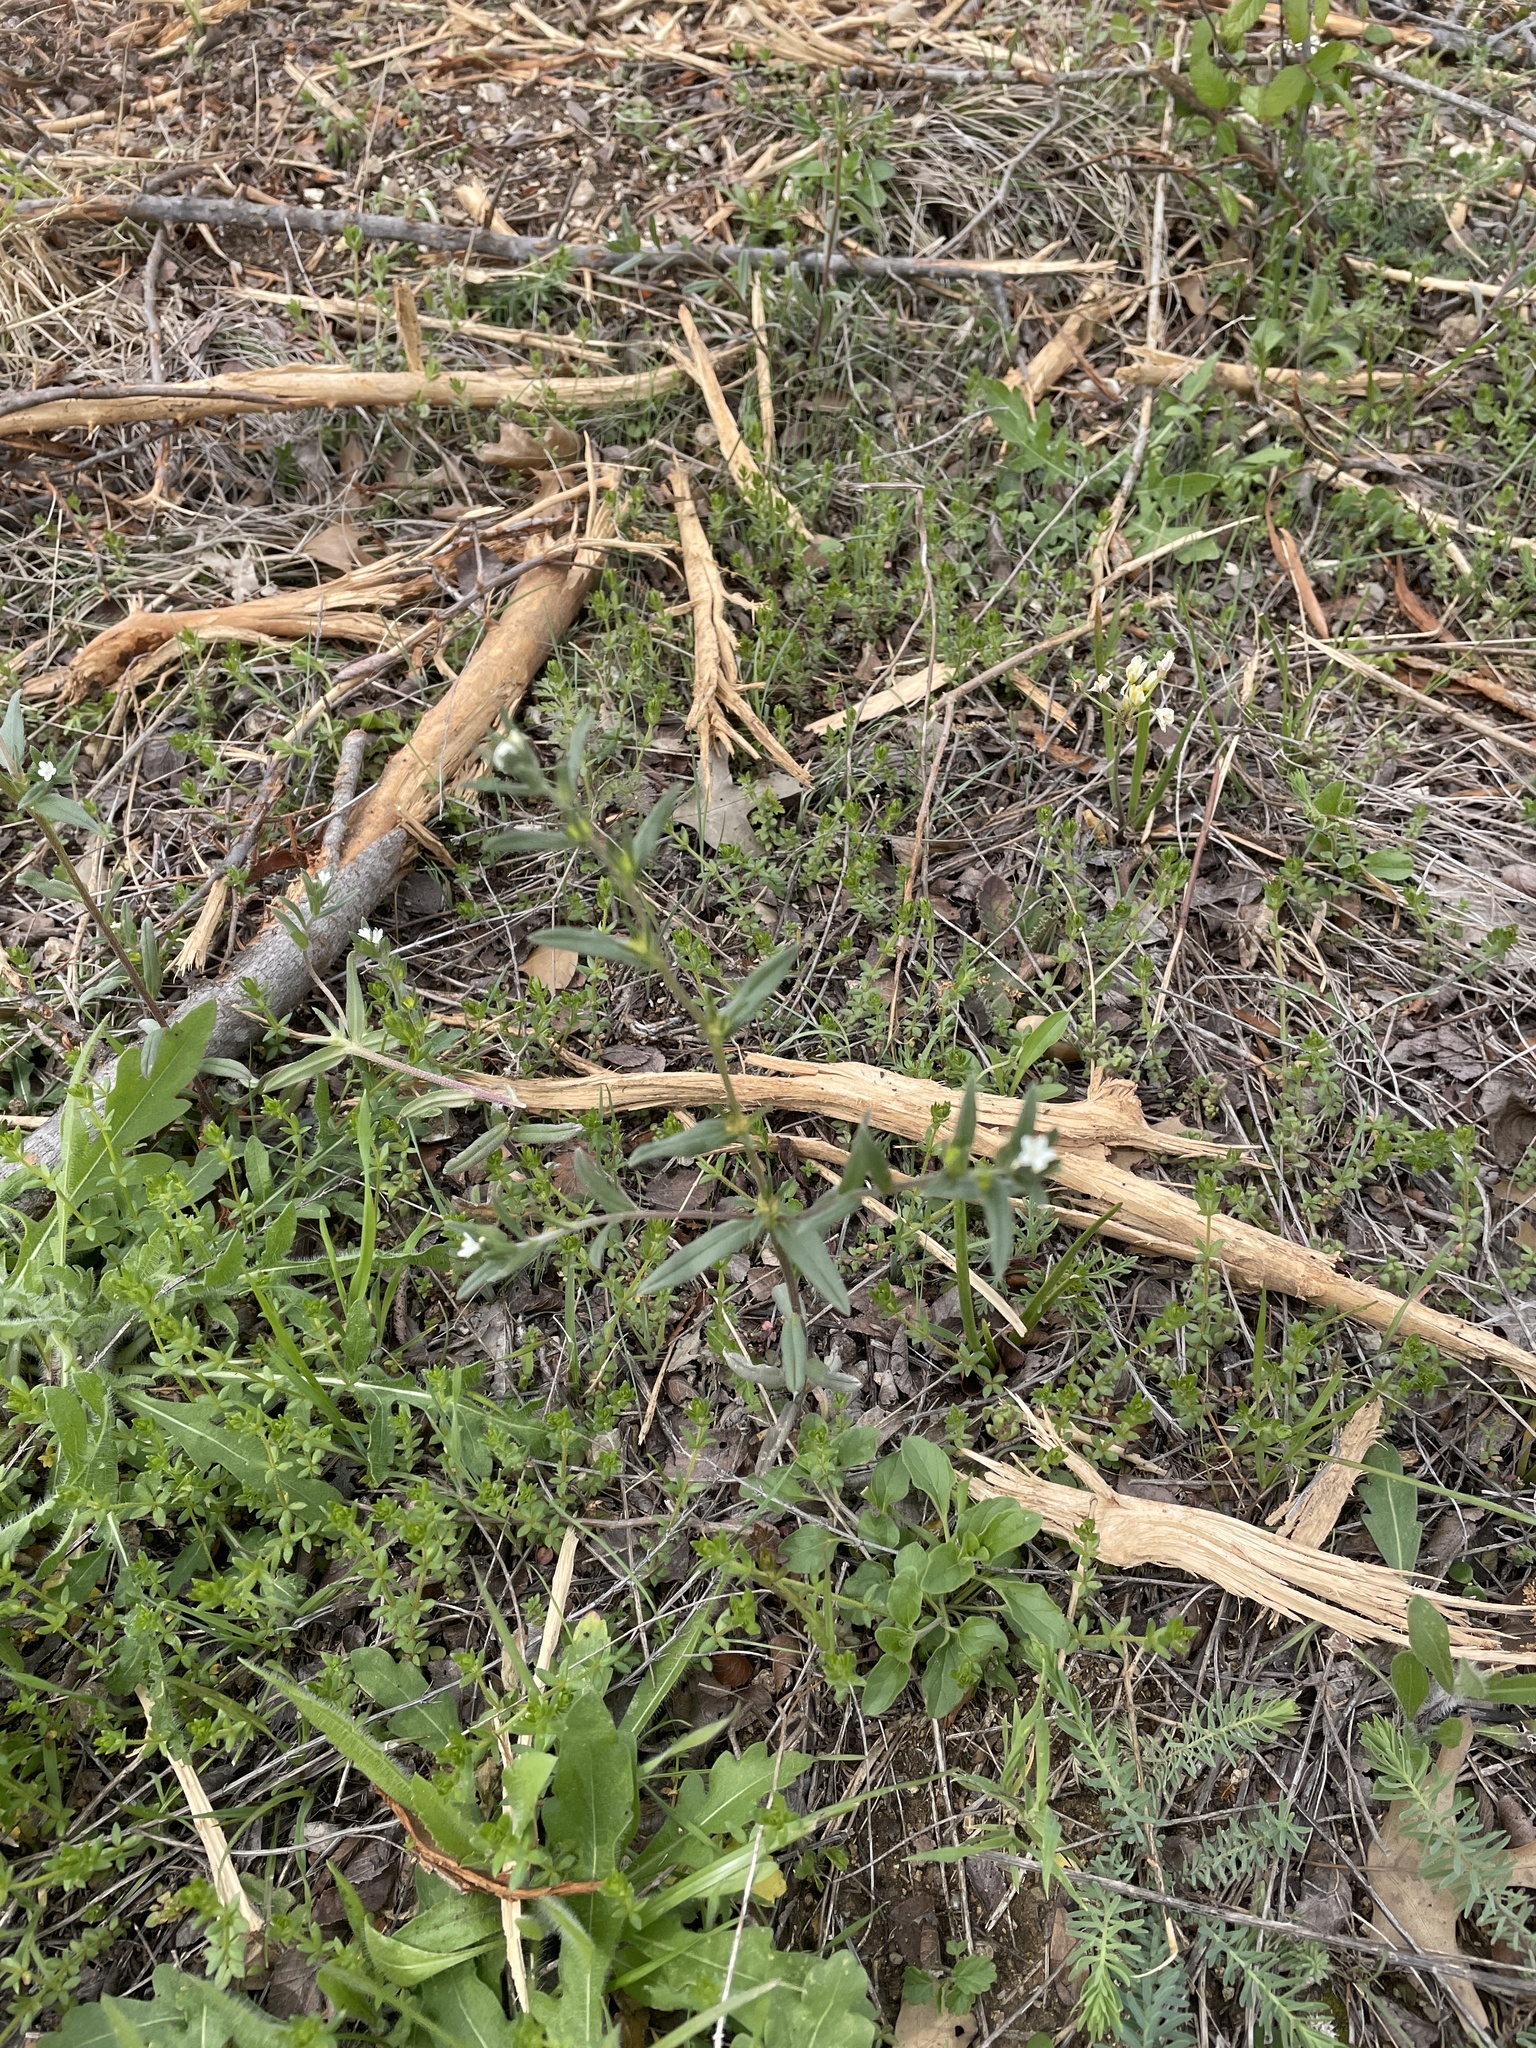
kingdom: Plantae
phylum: Tracheophyta
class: Magnoliopsida
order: Boraginales
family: Boraginaceae
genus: Buglossoides
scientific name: Buglossoides arvensis
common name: Corn gromwell
